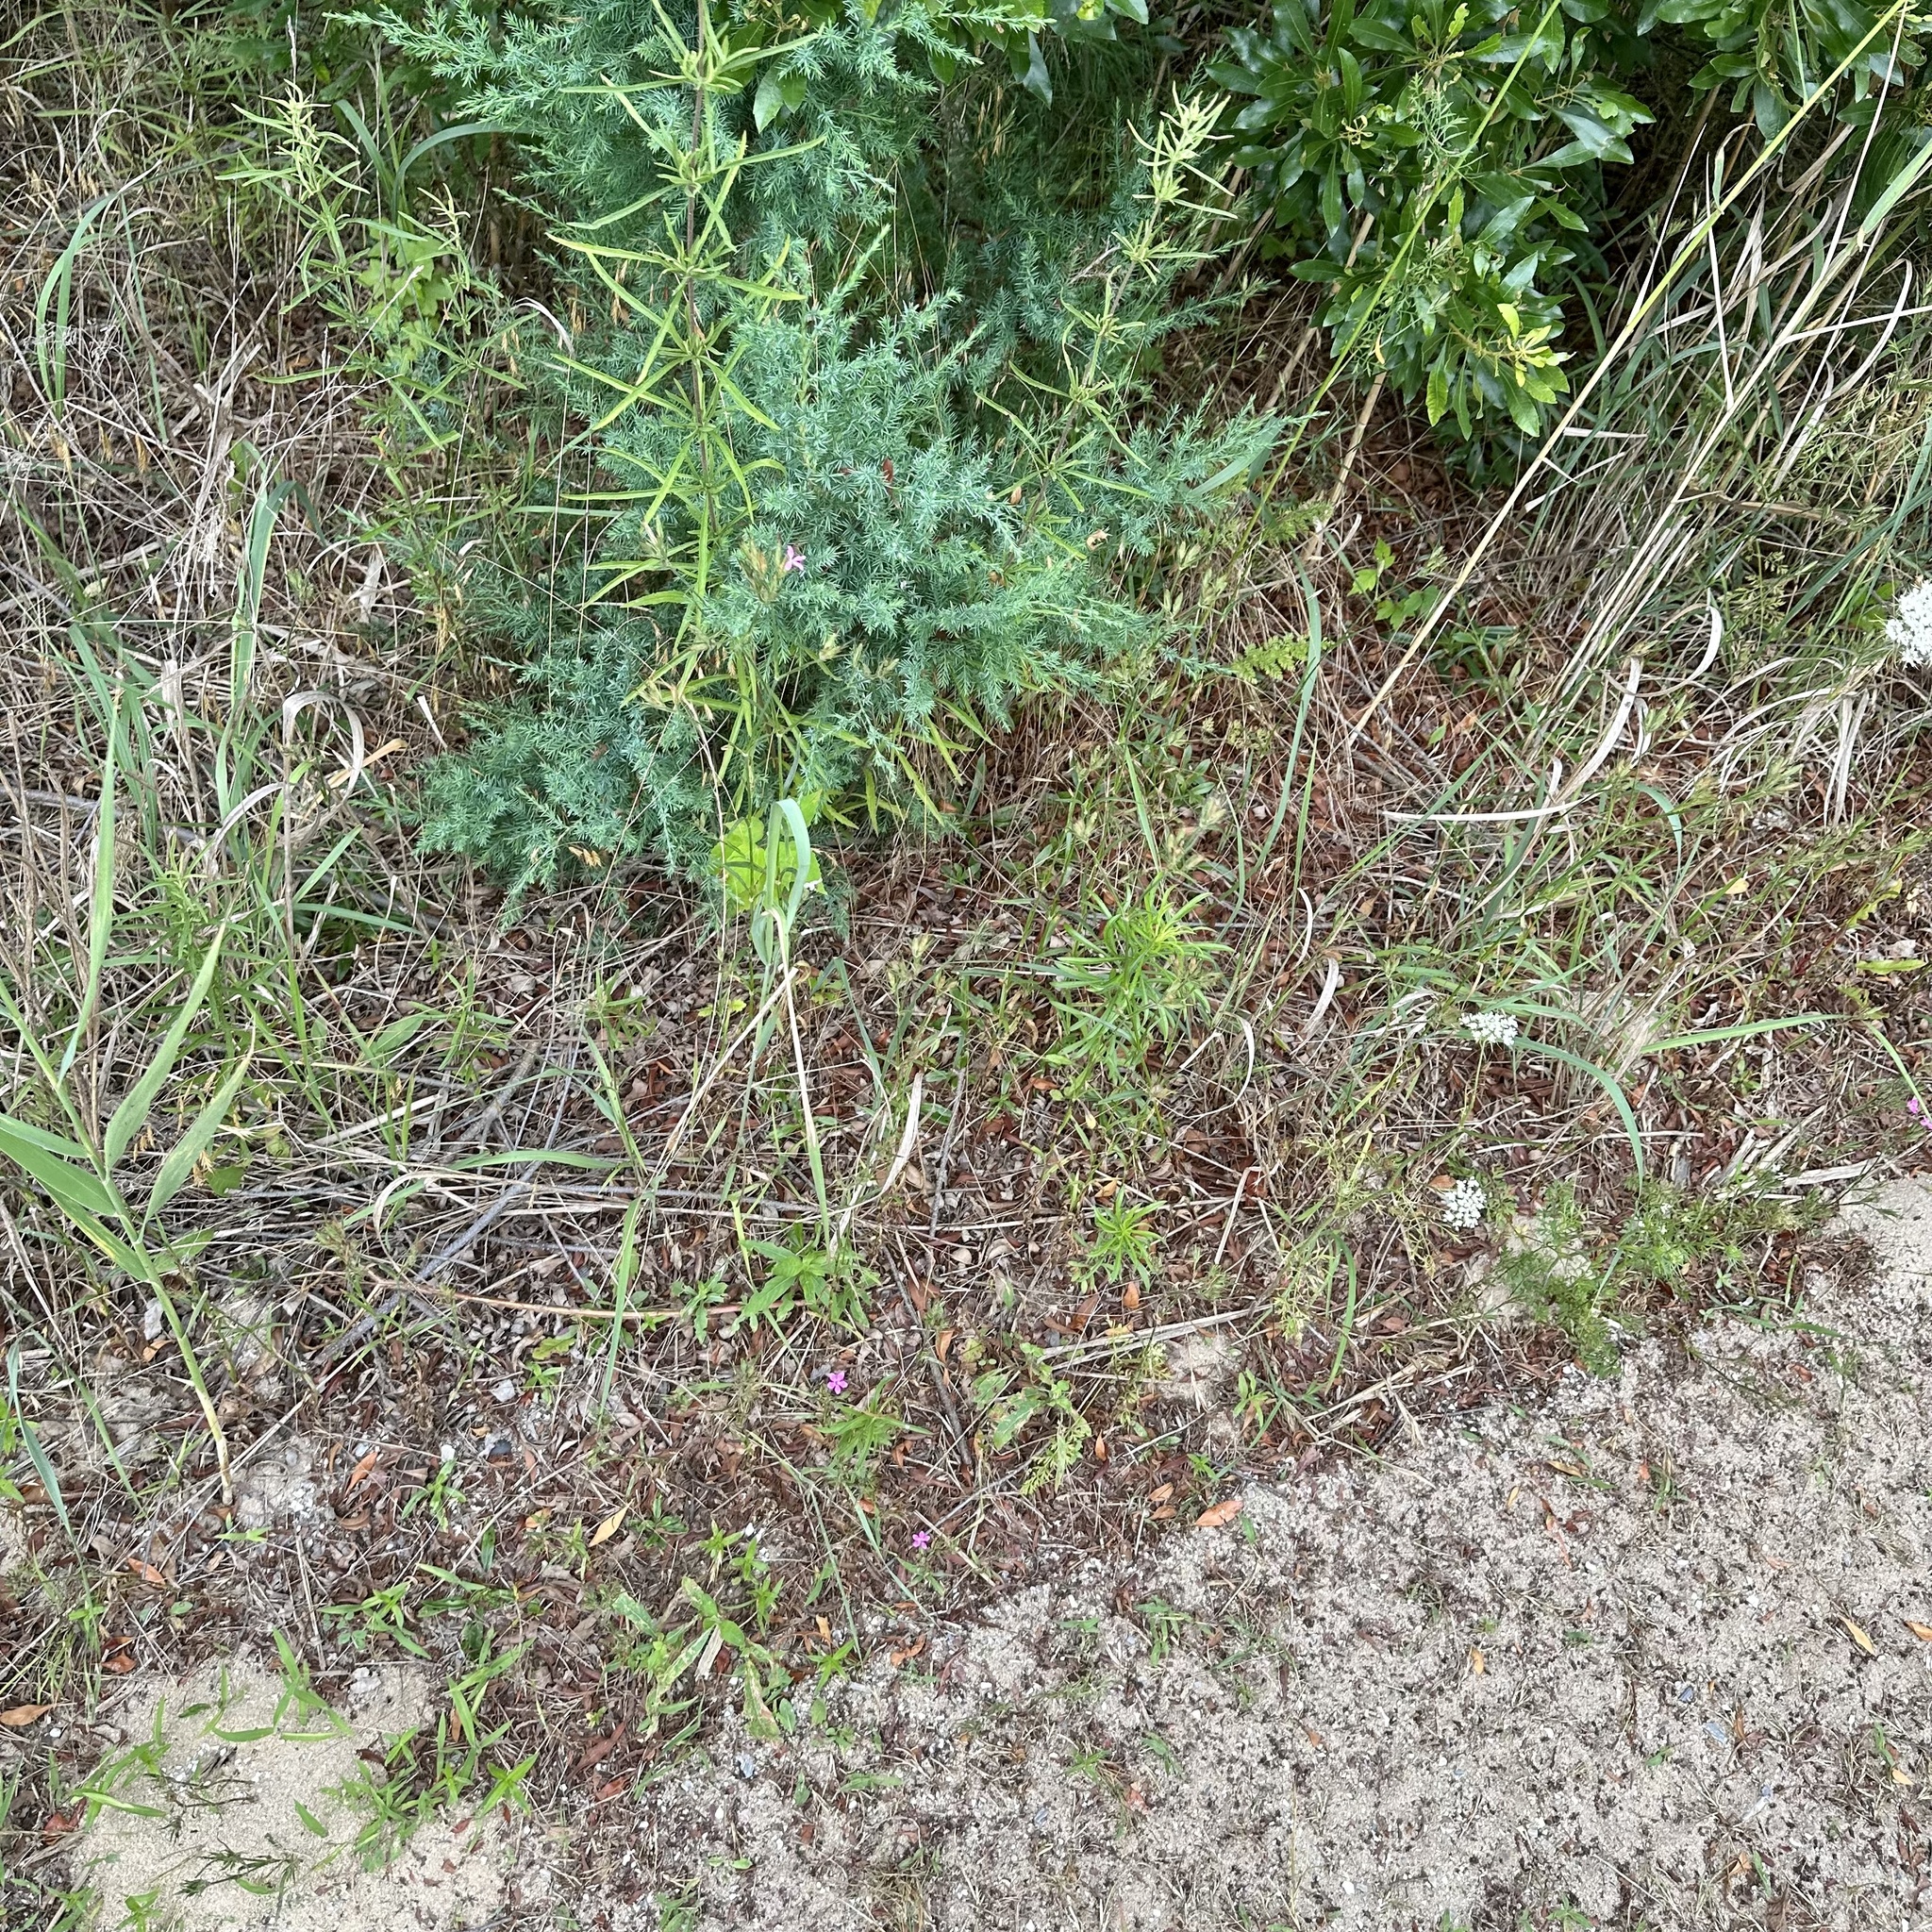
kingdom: Plantae
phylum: Tracheophyta
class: Magnoliopsida
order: Caryophyllales
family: Caryophyllaceae
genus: Dianthus
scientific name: Dianthus armeria
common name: Deptford pink
